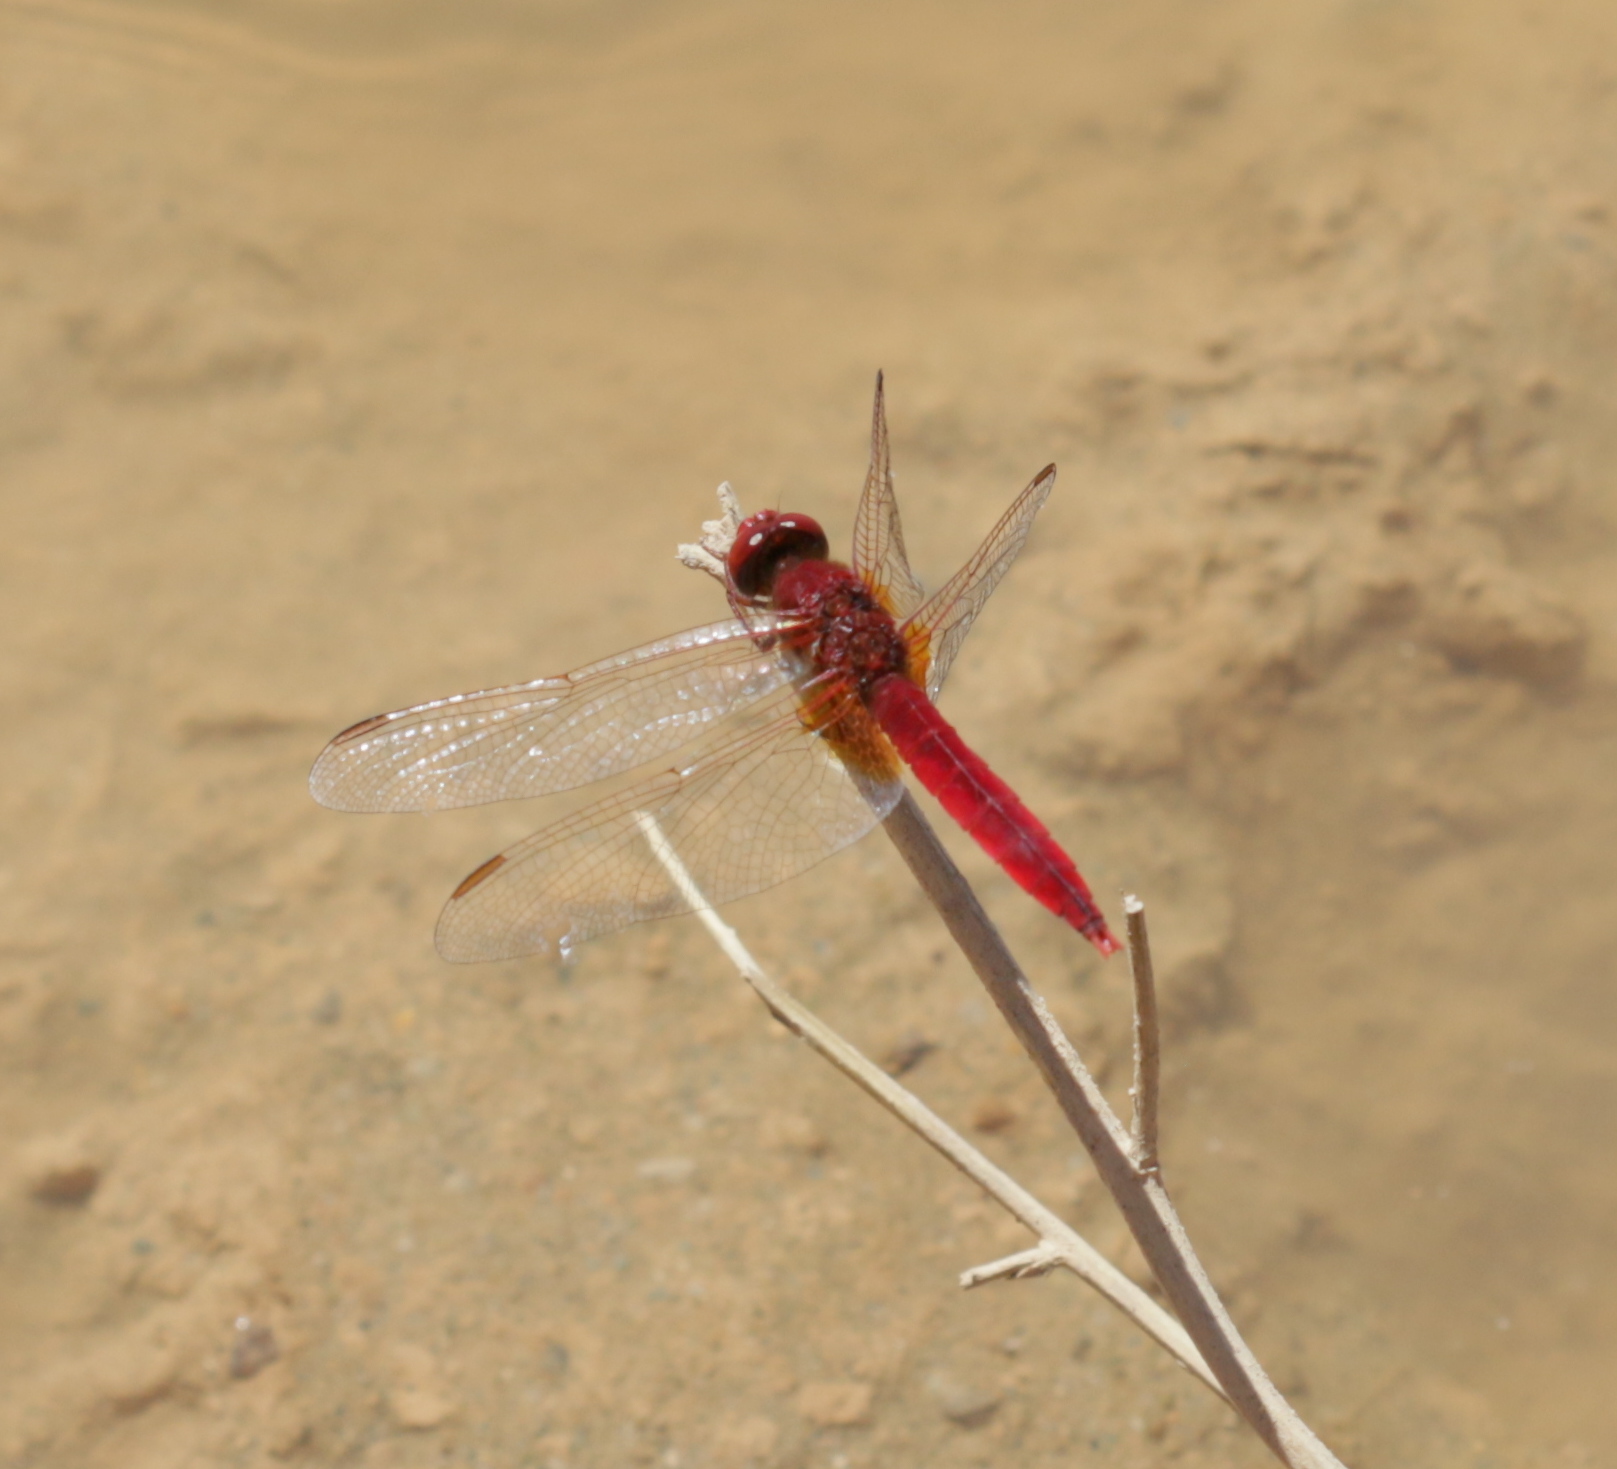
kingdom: Animalia
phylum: Arthropoda
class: Insecta
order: Odonata
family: Libellulidae
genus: Crocothemis
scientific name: Crocothemis erythraea
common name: Scarlet dragonfly
